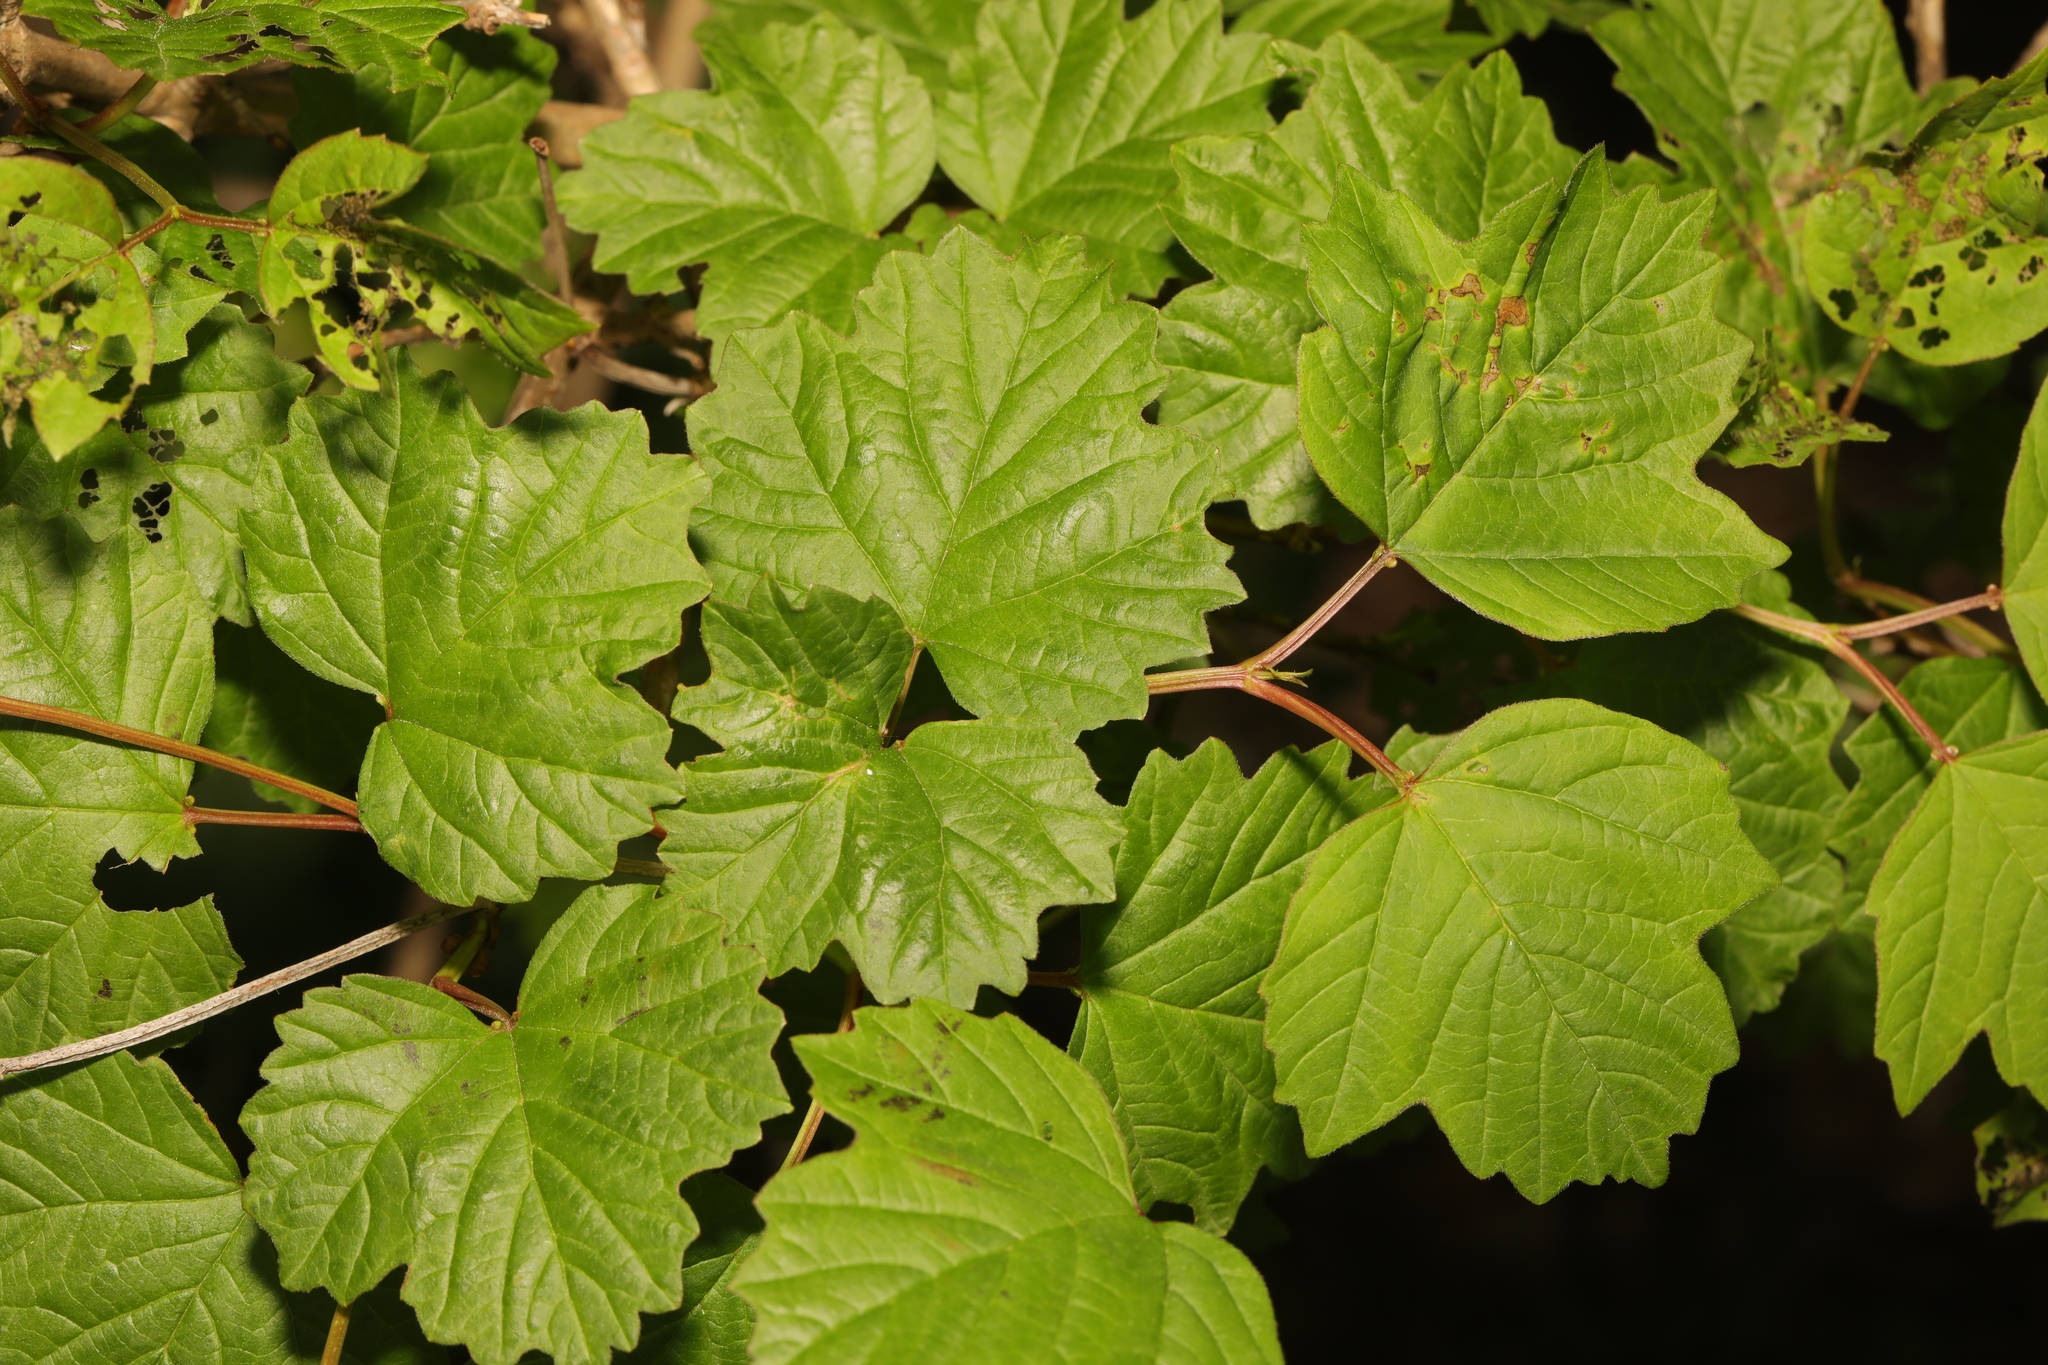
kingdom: Plantae
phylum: Tracheophyta
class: Magnoliopsida
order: Dipsacales
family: Viburnaceae
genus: Viburnum
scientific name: Viburnum opulus
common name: Guelder-rose
